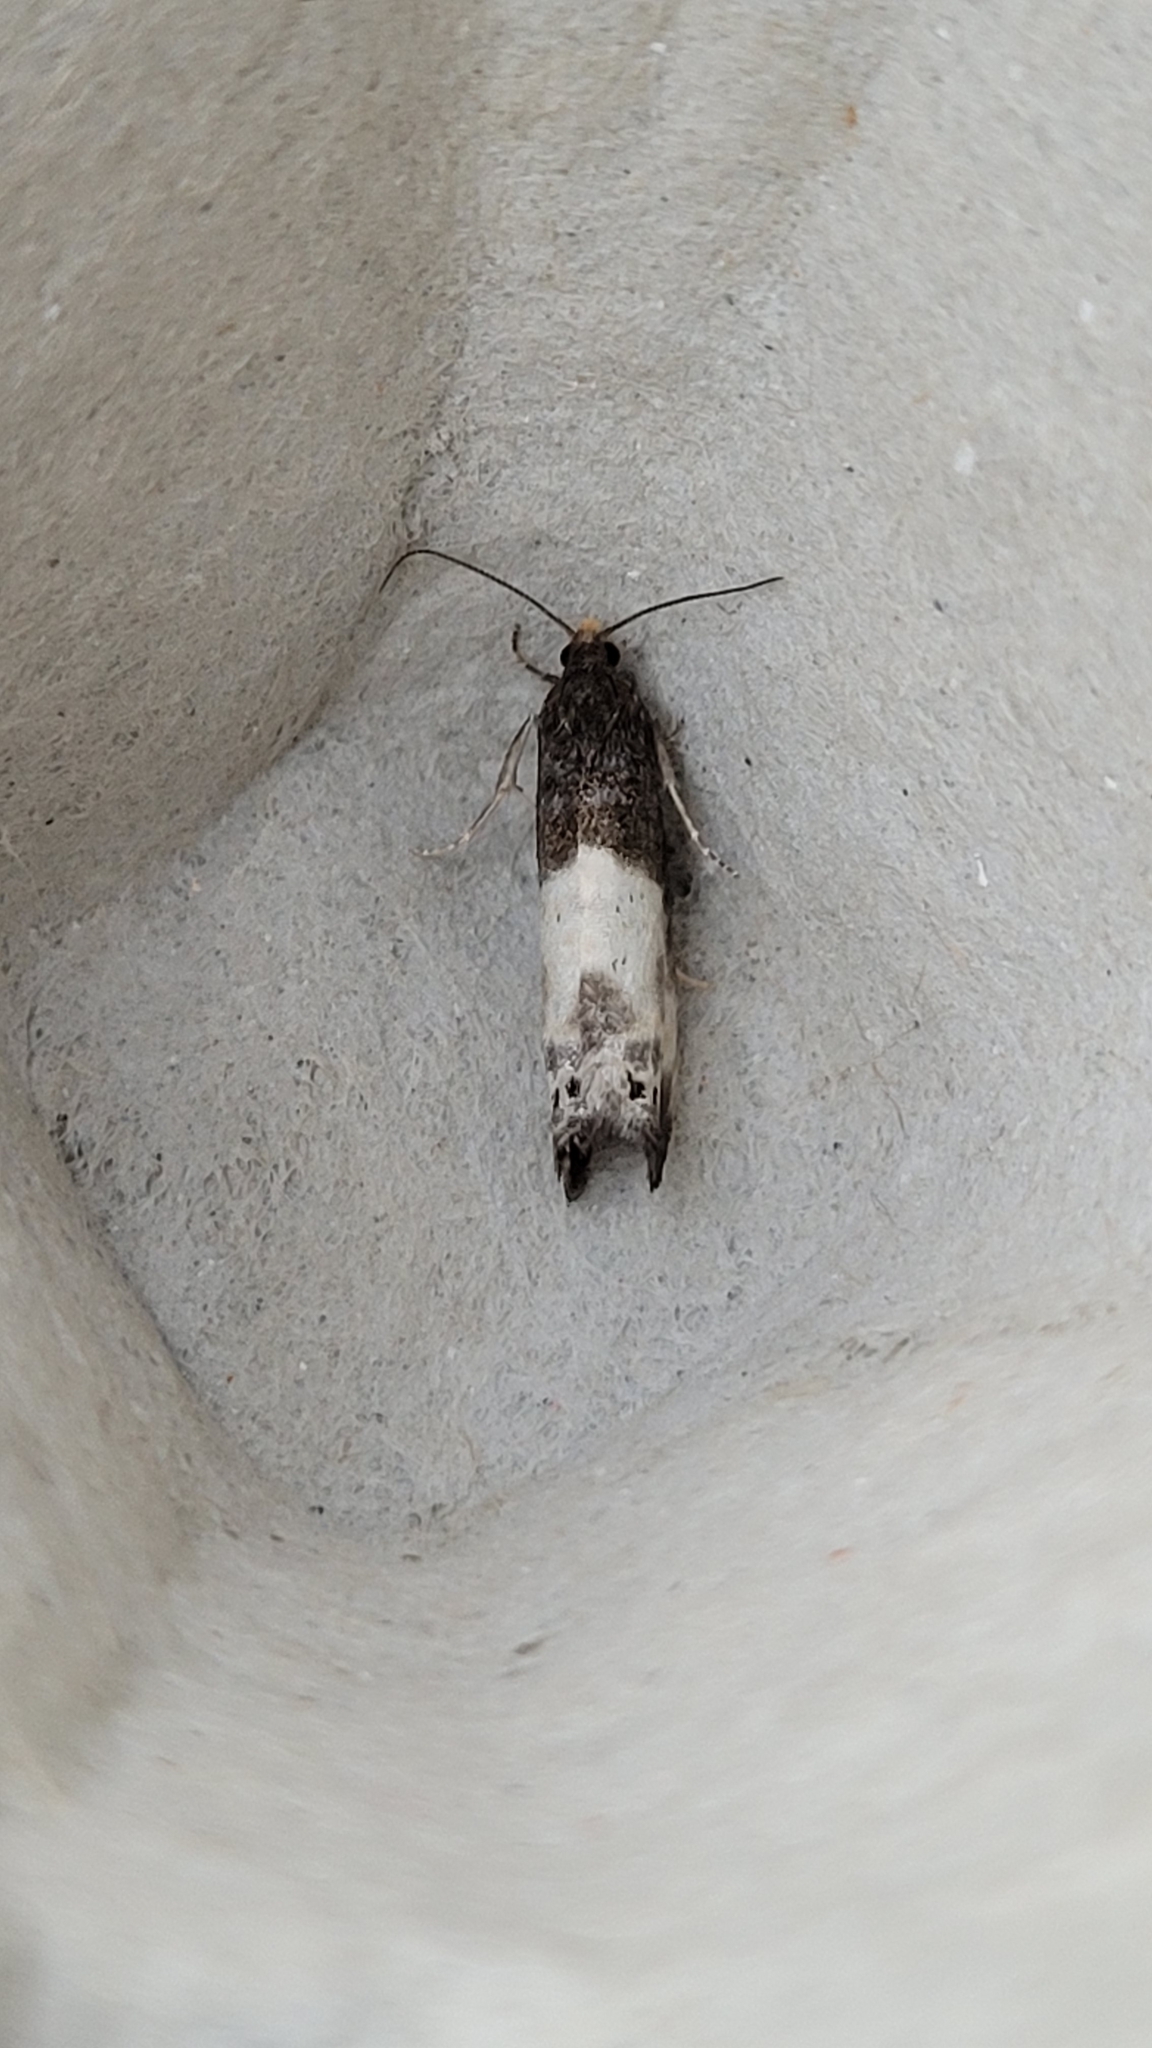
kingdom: Animalia
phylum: Arthropoda
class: Insecta
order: Lepidoptera
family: Tortricidae
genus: Notocelia
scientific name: Notocelia cynosbatella
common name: Yellow-faced bell moth
